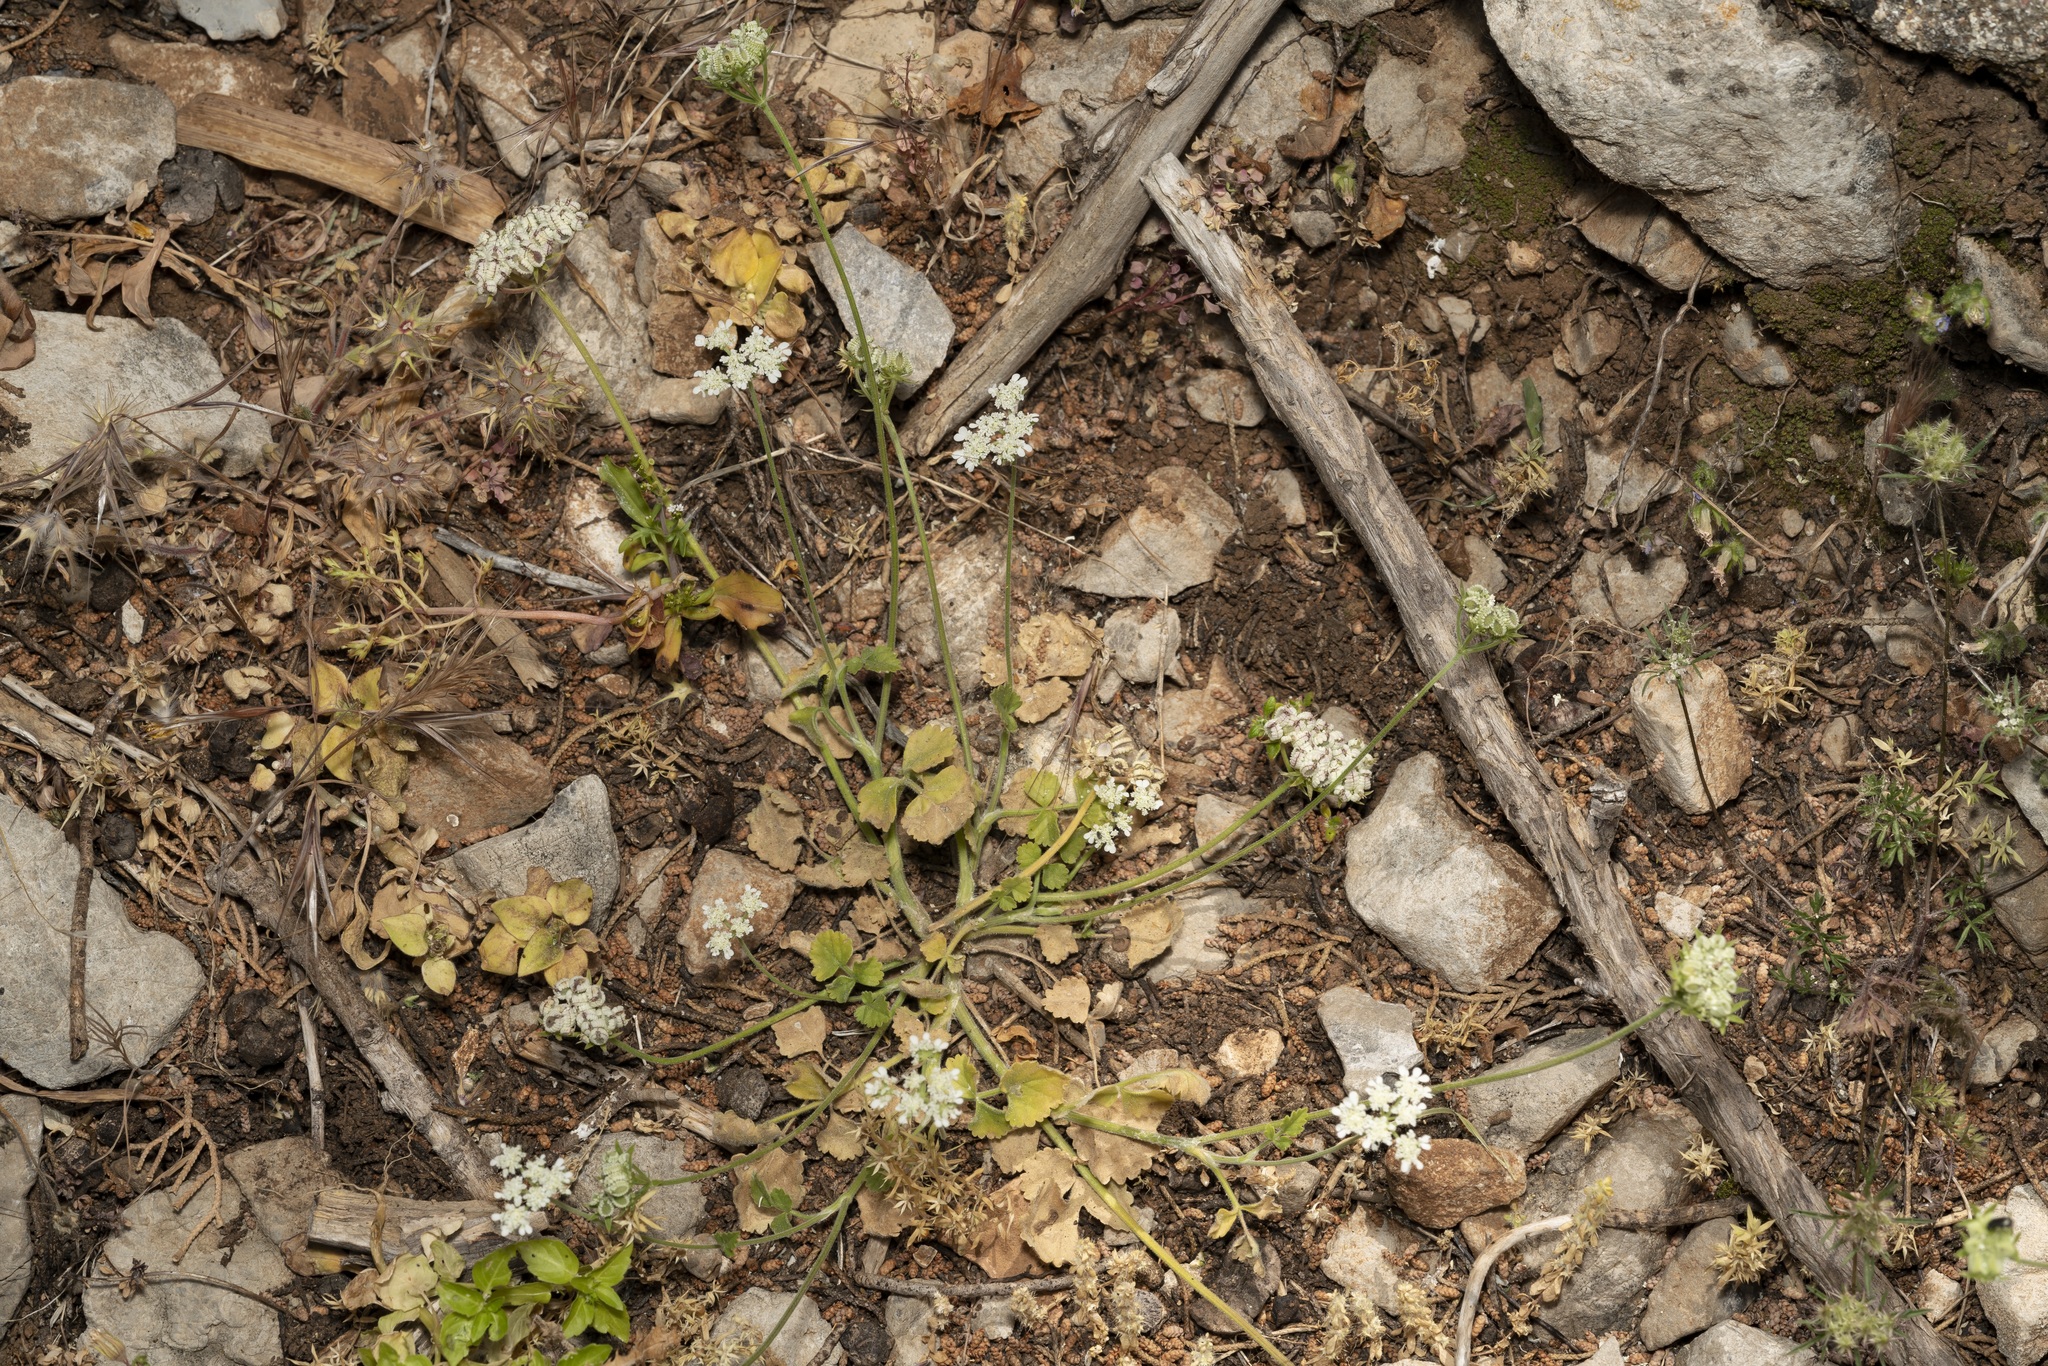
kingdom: Plantae
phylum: Tracheophyta
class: Magnoliopsida
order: Apiales
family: Apiaceae
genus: Tordylium
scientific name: Tordylium pestalozzae
